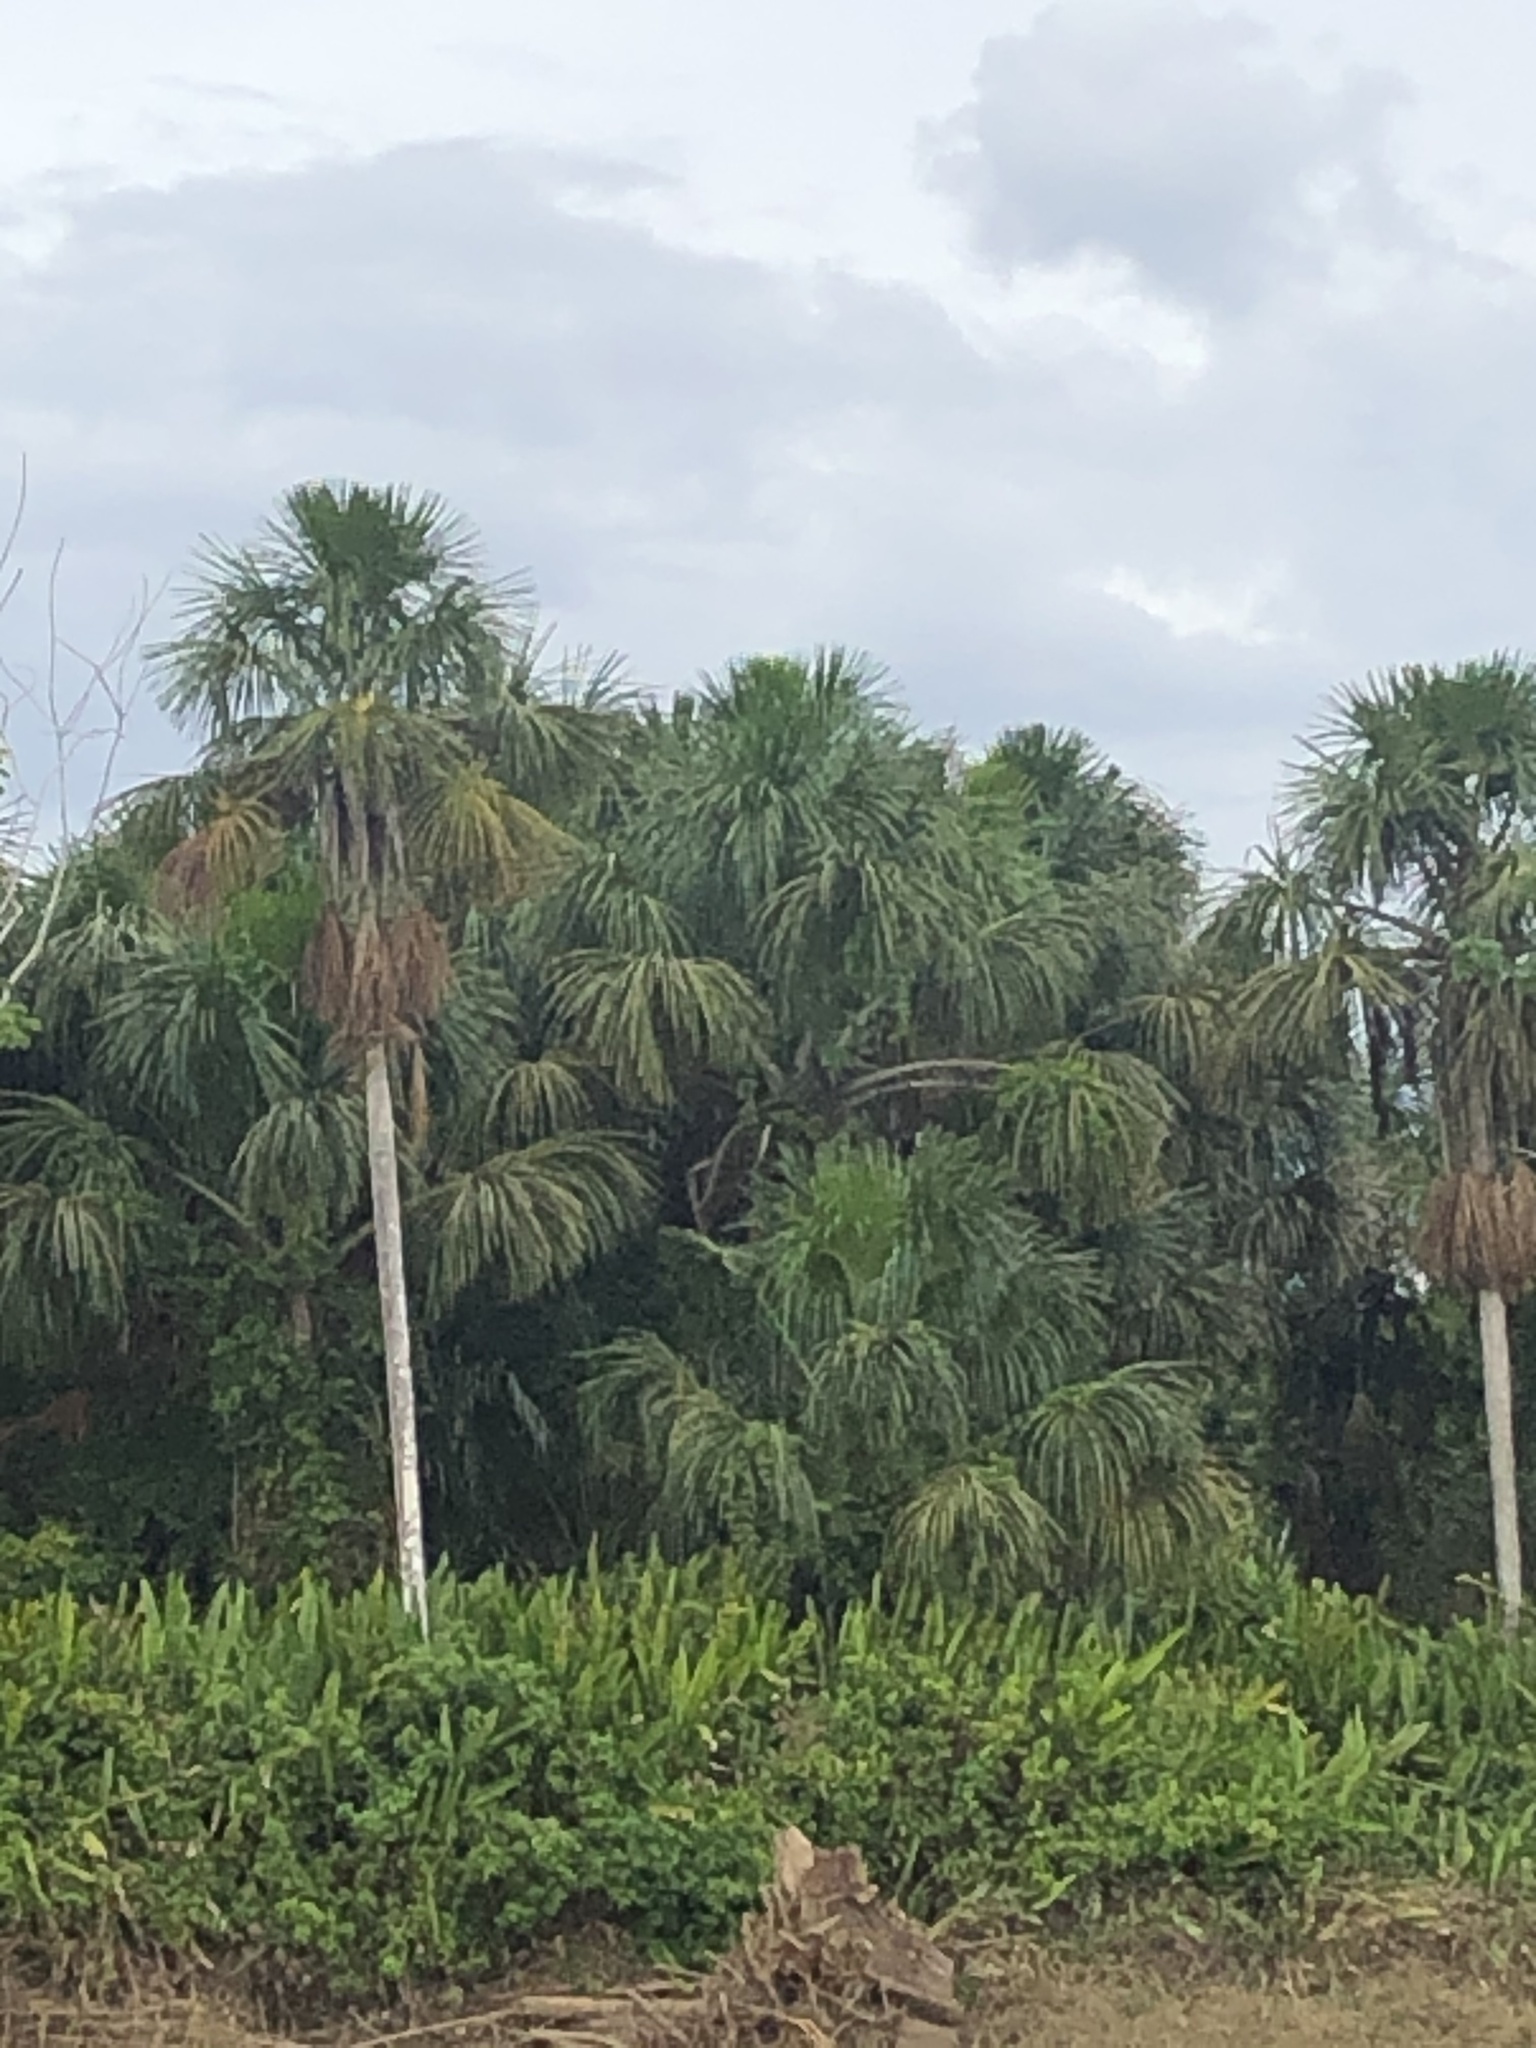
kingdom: Plantae
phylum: Tracheophyta
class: Liliopsida
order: Arecales
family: Arecaceae
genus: Mauritia
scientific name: Mauritia flexuosa
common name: Tree-of-life
